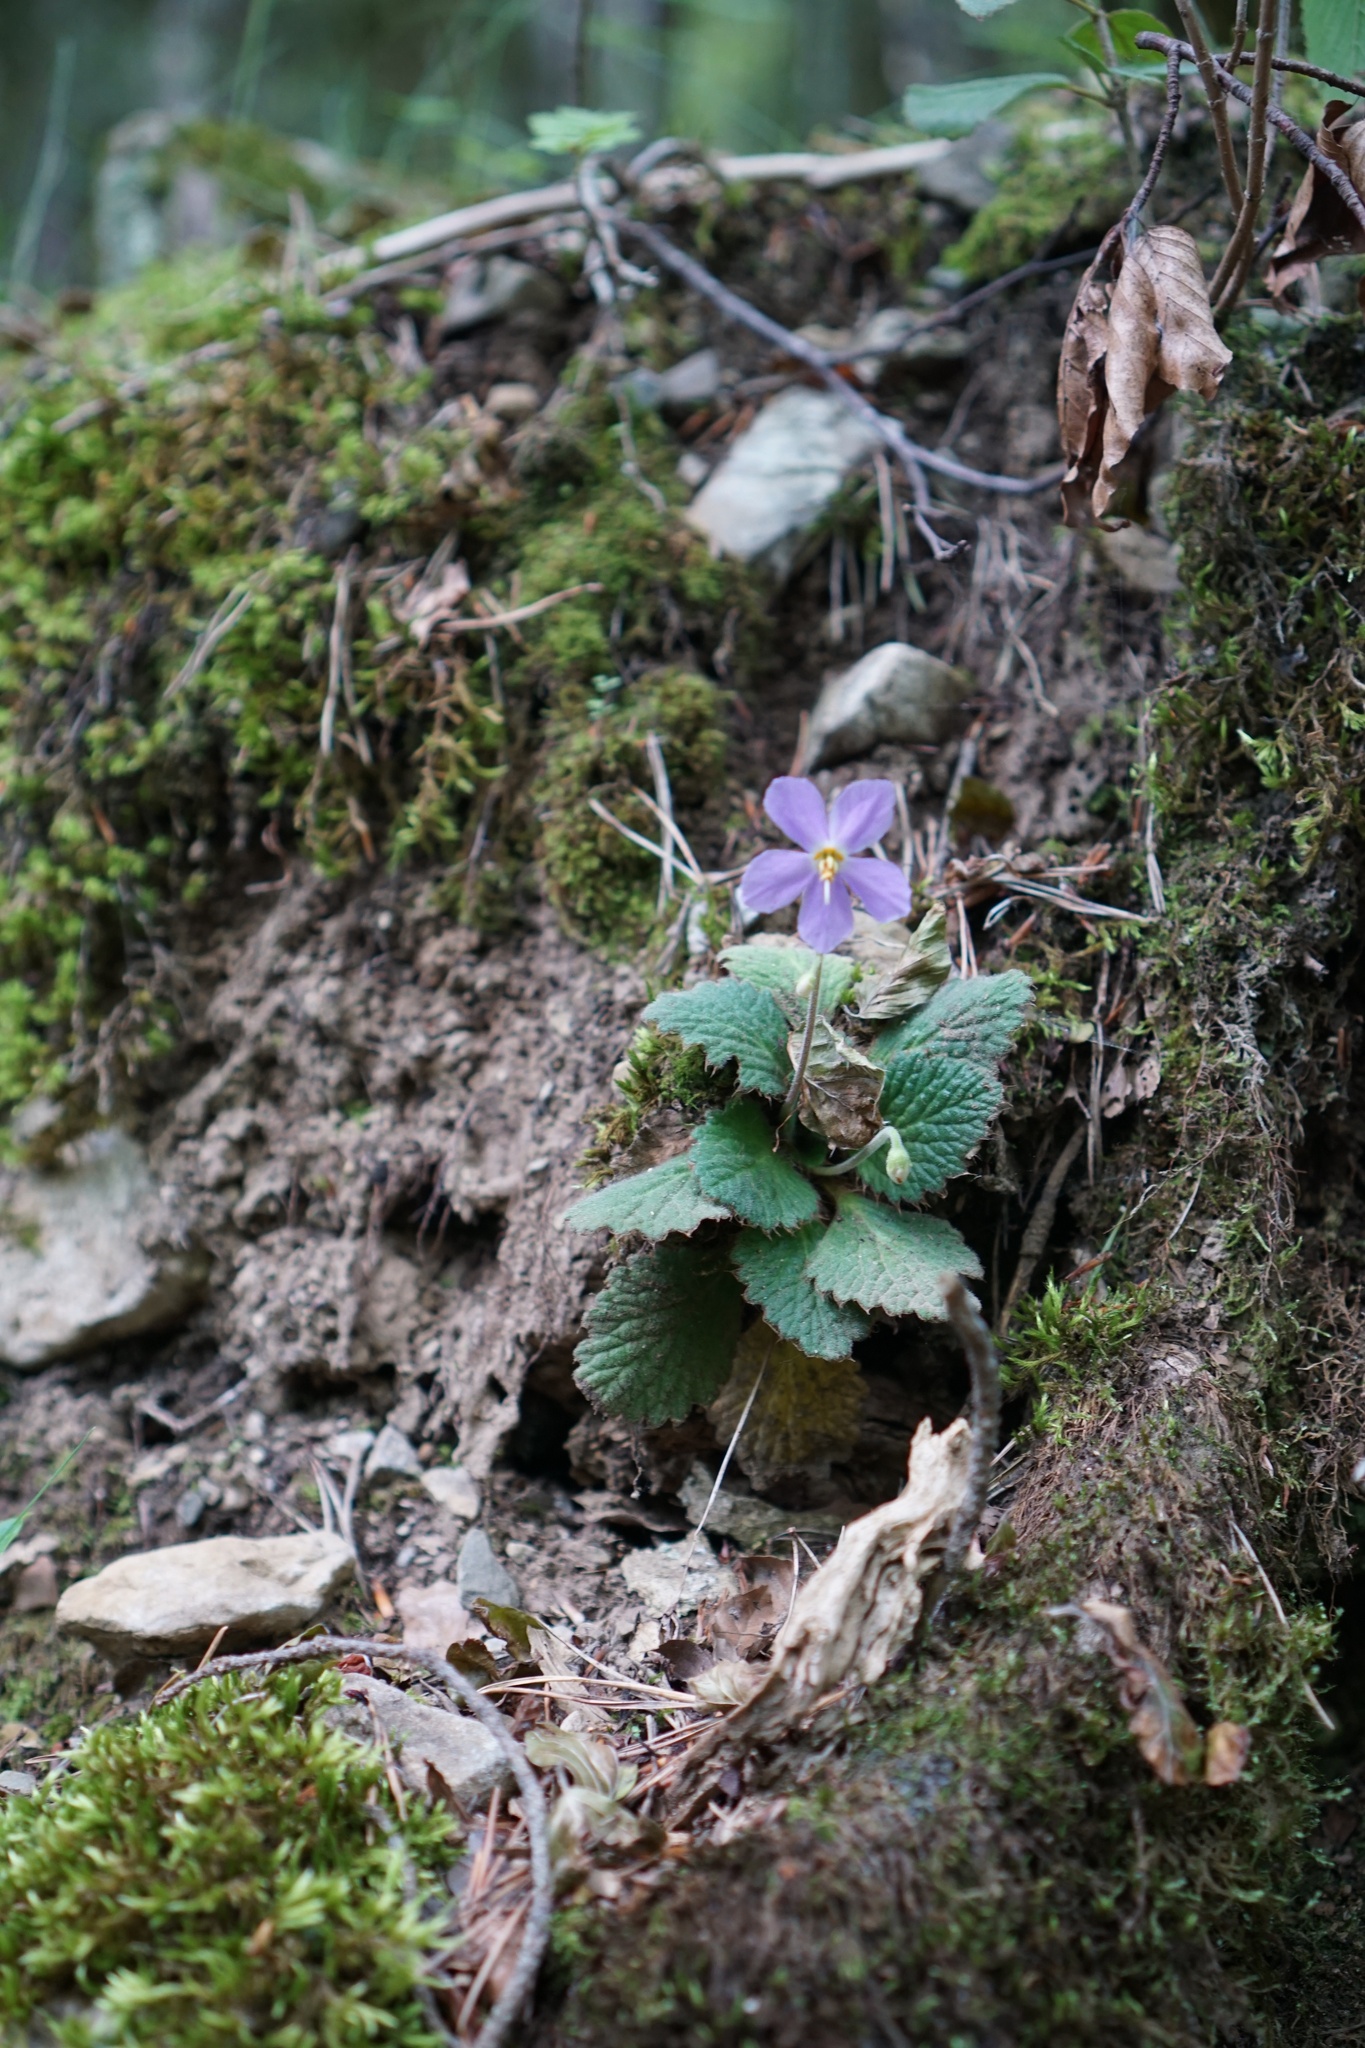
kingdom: Plantae
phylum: Tracheophyta
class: Magnoliopsida
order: Lamiales
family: Gesneriaceae
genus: Ramonda
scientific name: Ramonda myconi
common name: Pyrenean-violet
